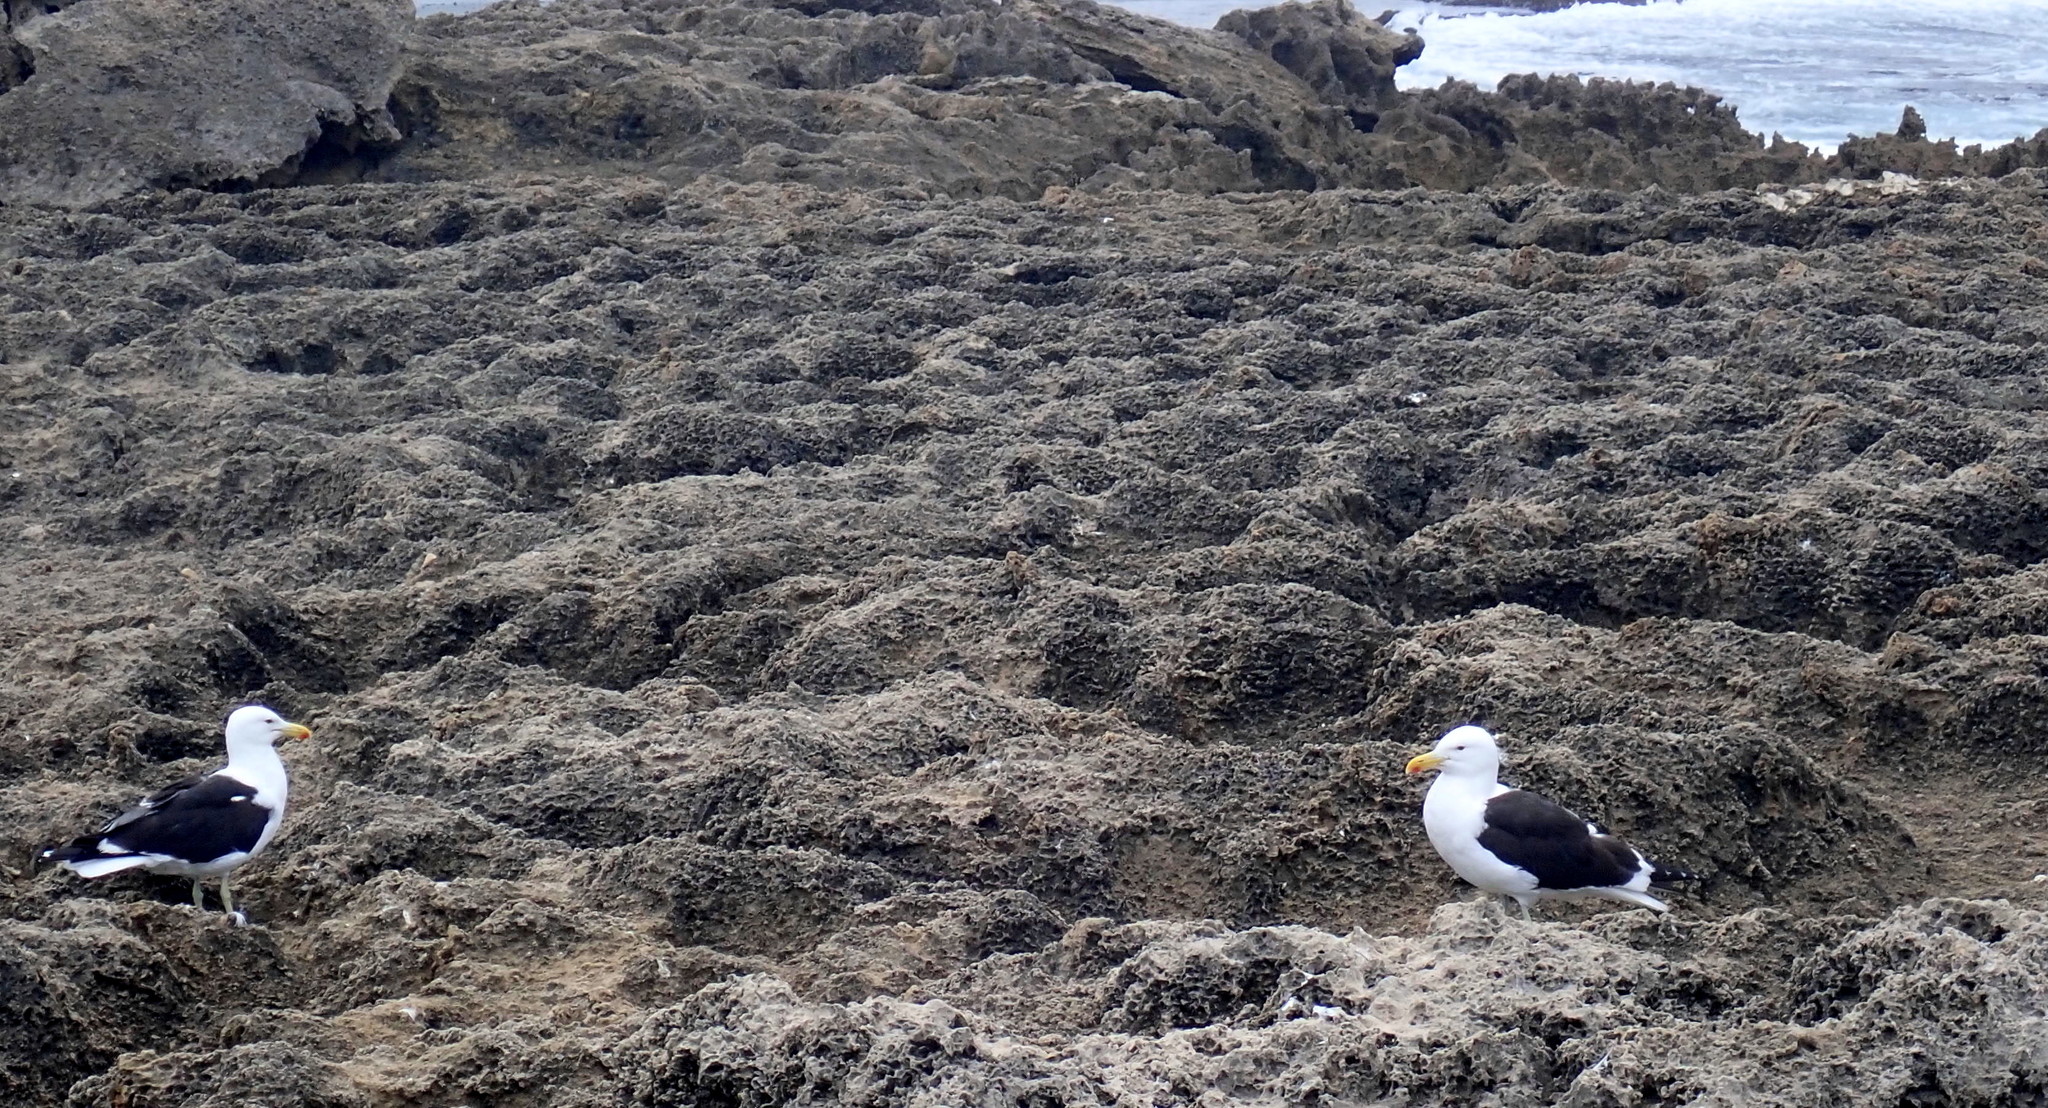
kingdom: Animalia
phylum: Chordata
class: Aves
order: Charadriiformes
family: Laridae
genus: Larus
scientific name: Larus dominicanus
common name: Kelp gull
